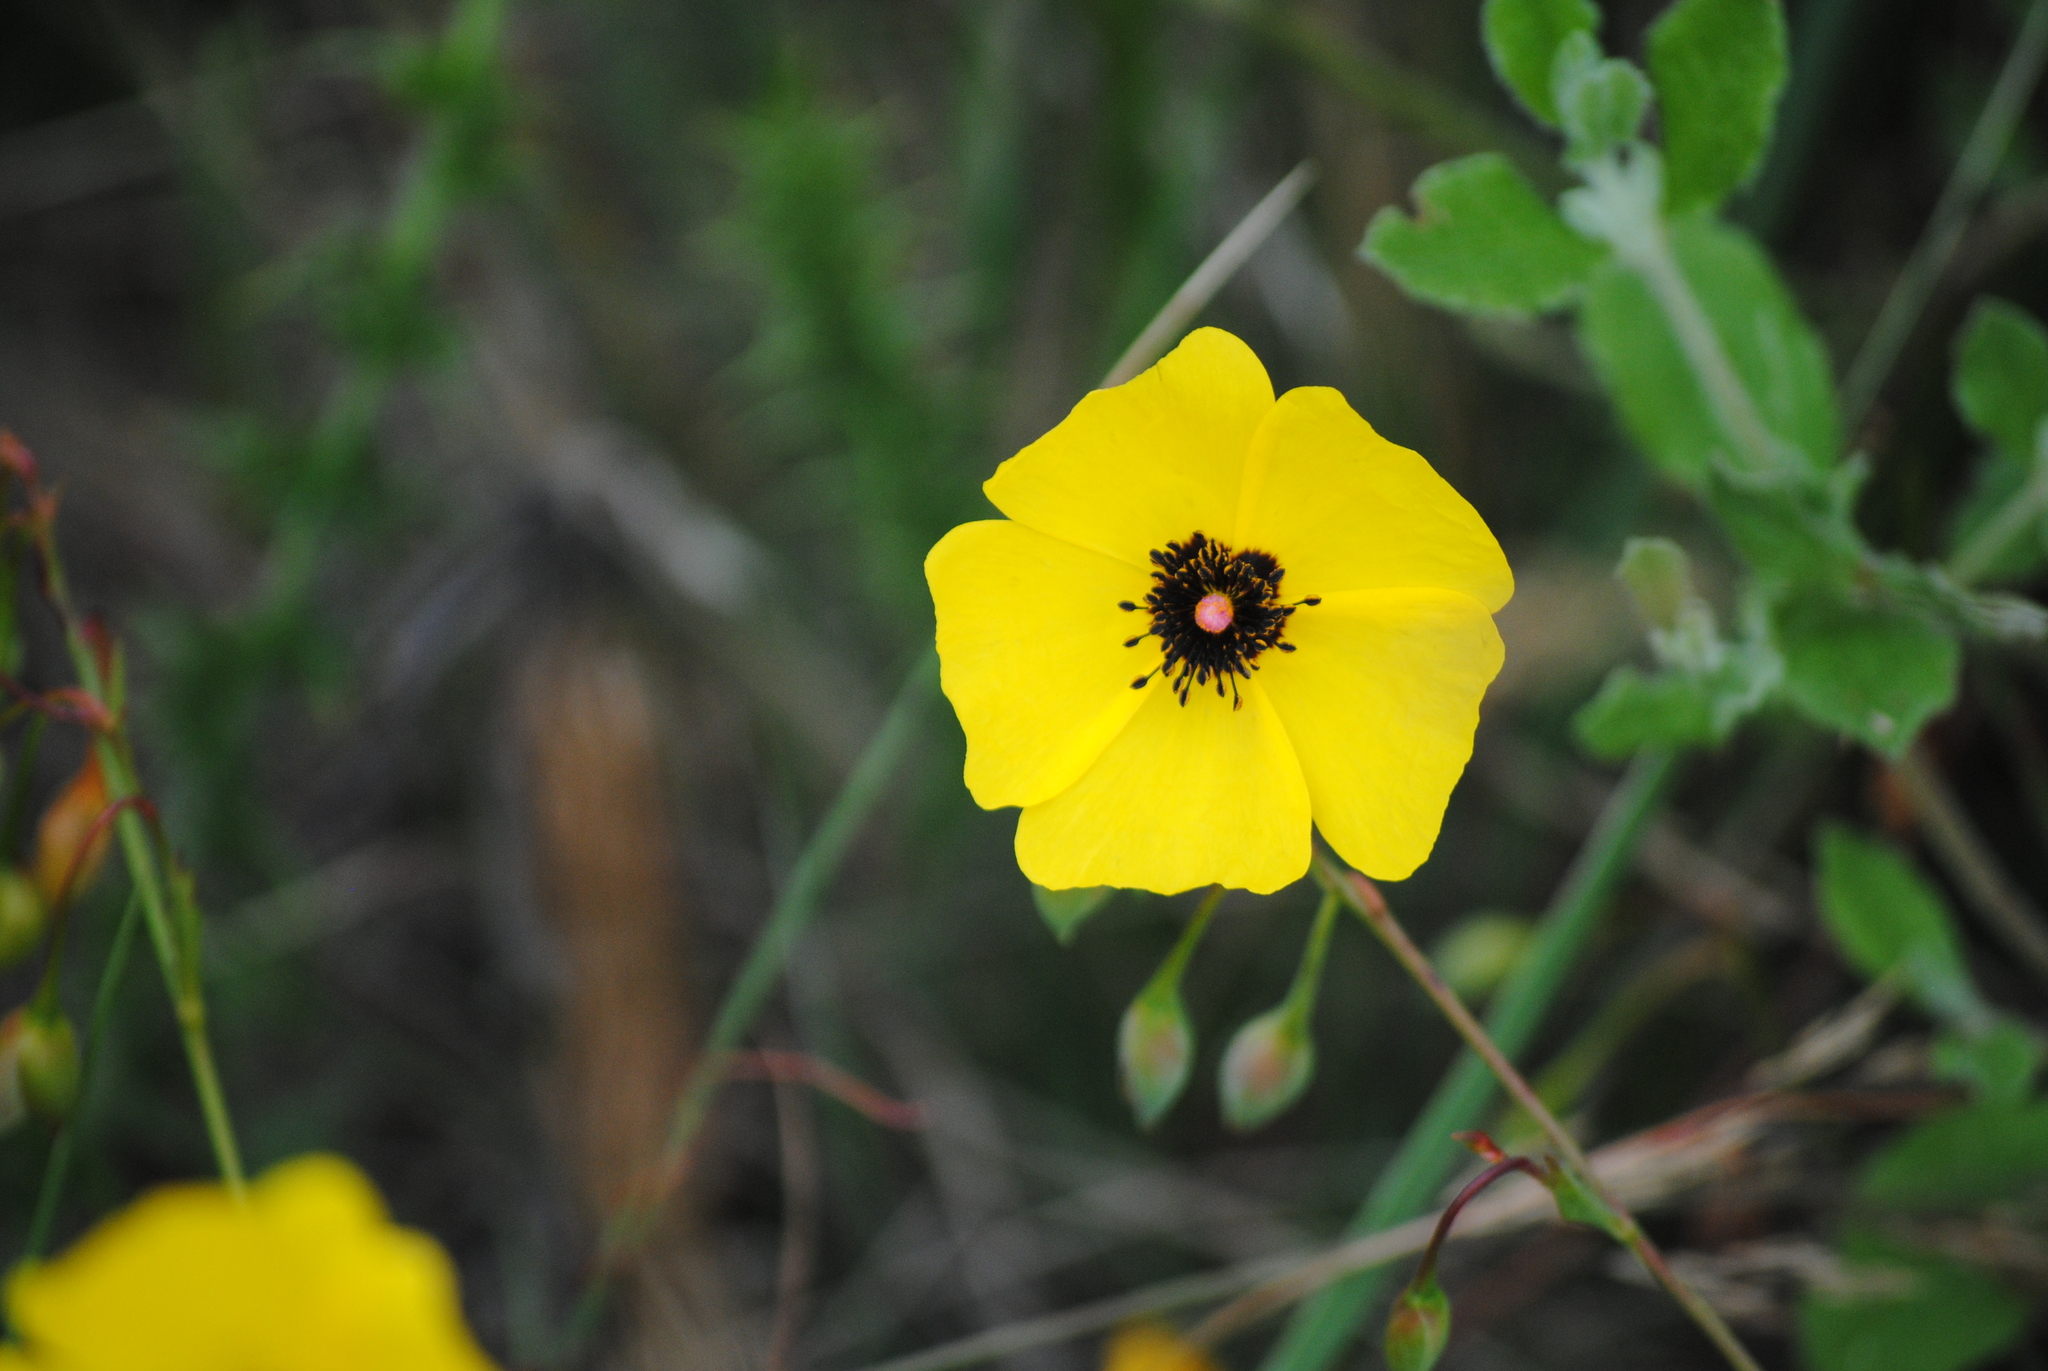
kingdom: Plantae
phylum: Tracheophyta
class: Magnoliopsida
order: Malvales
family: Cistaceae
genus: Tuberaria
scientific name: Tuberaria globulariifolia
